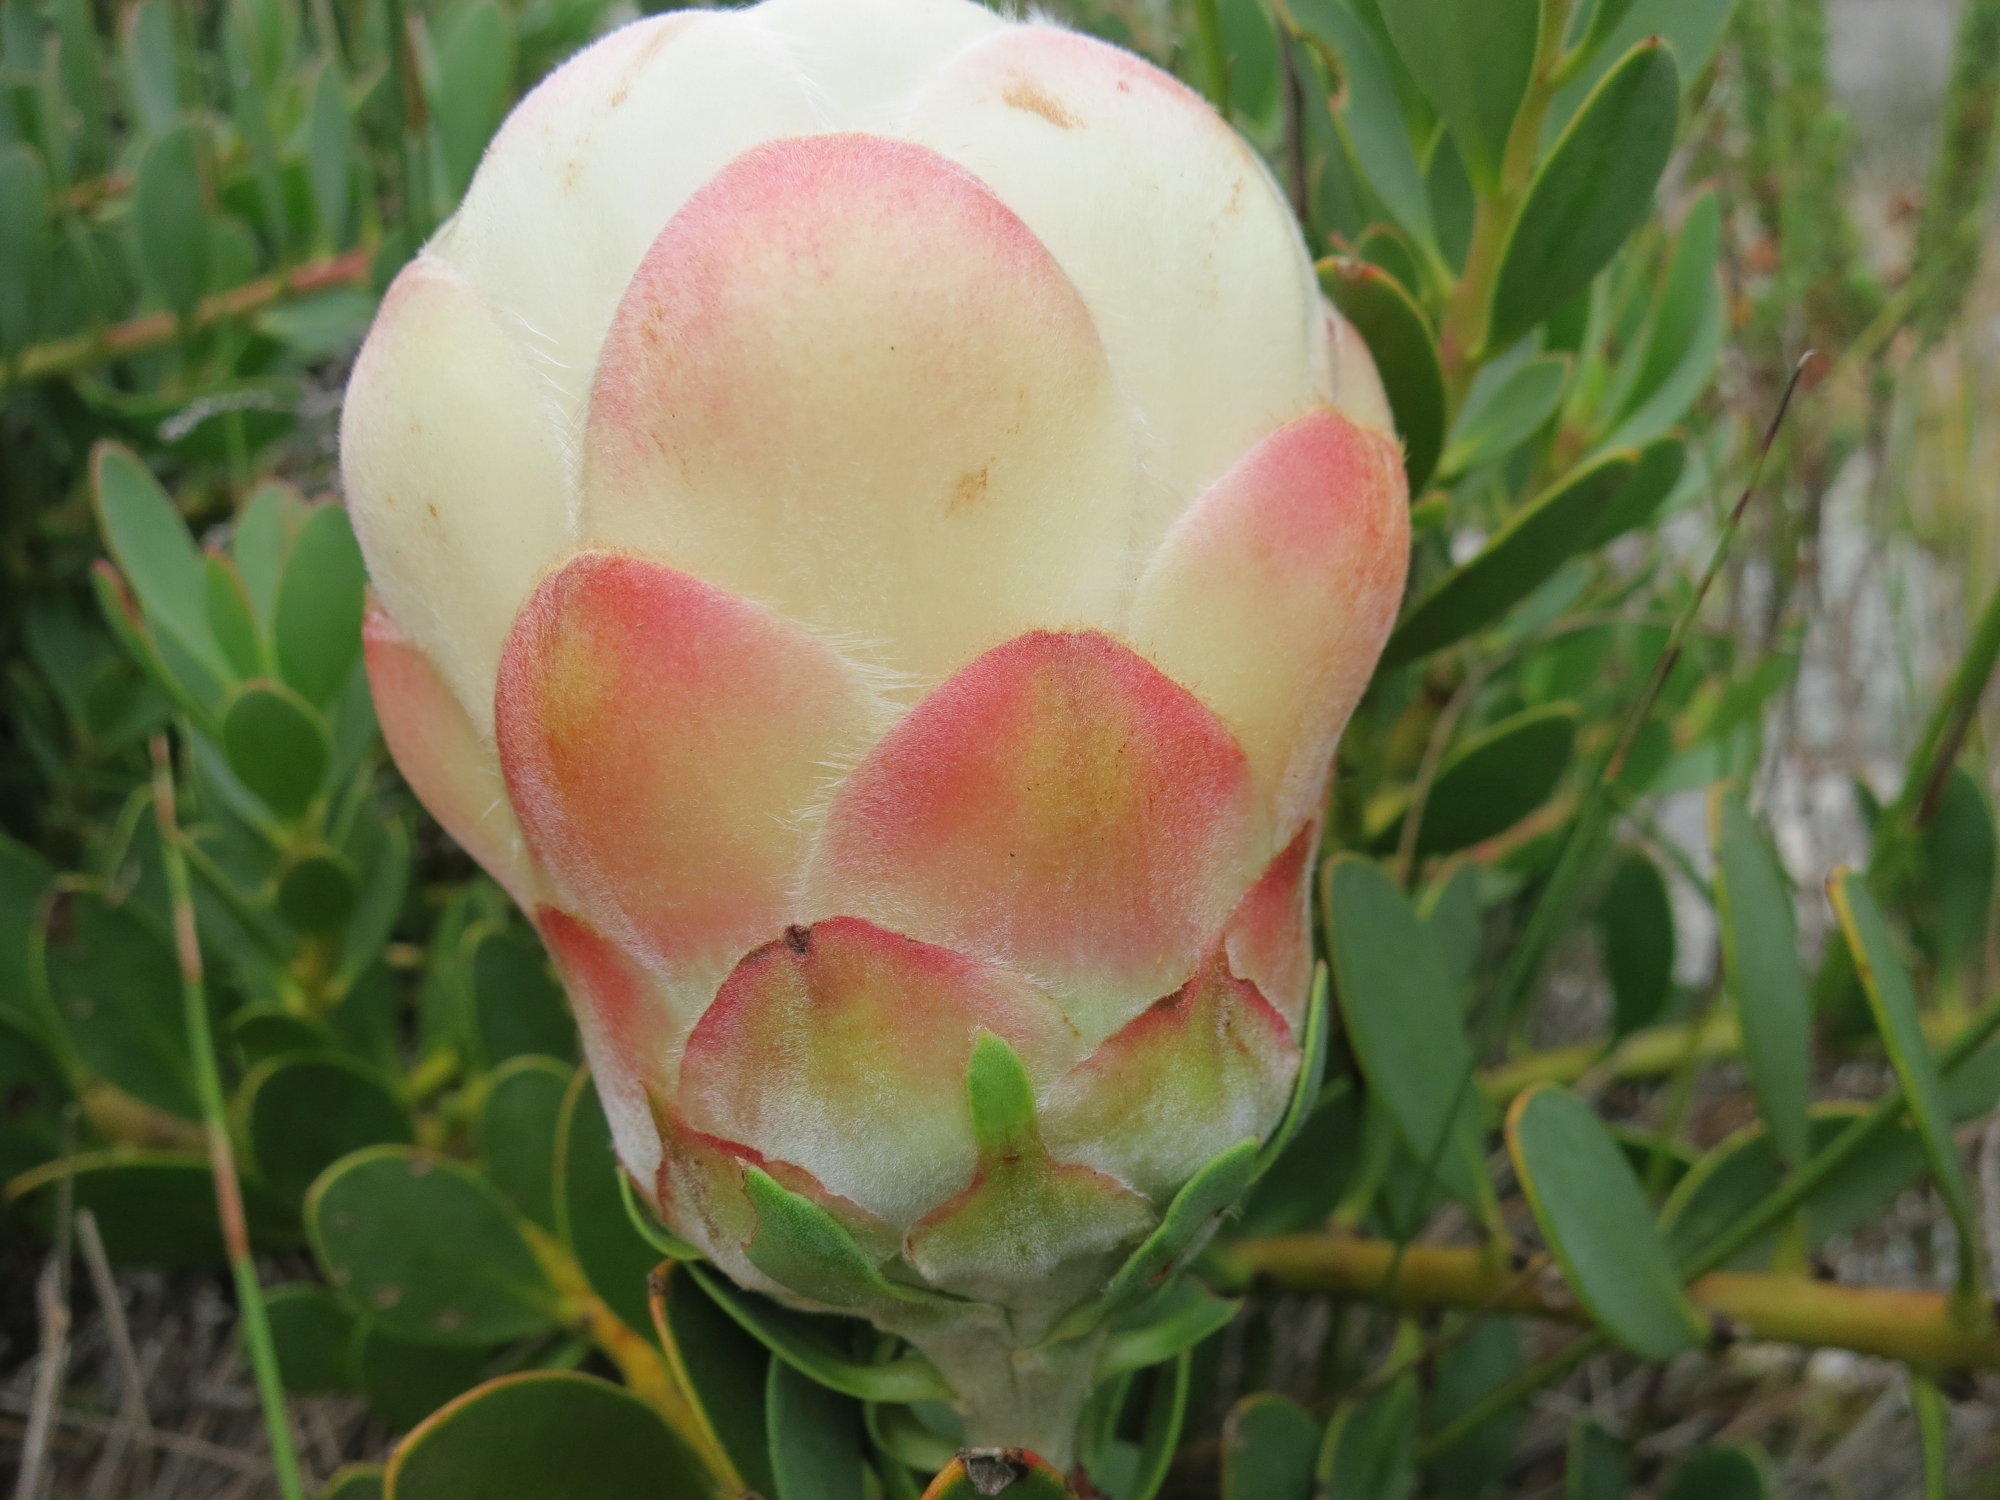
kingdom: Plantae
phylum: Tracheophyta
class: Magnoliopsida
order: Proteales
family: Proteaceae
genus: Protea
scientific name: Protea venusta
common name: Cascade sugarbush
